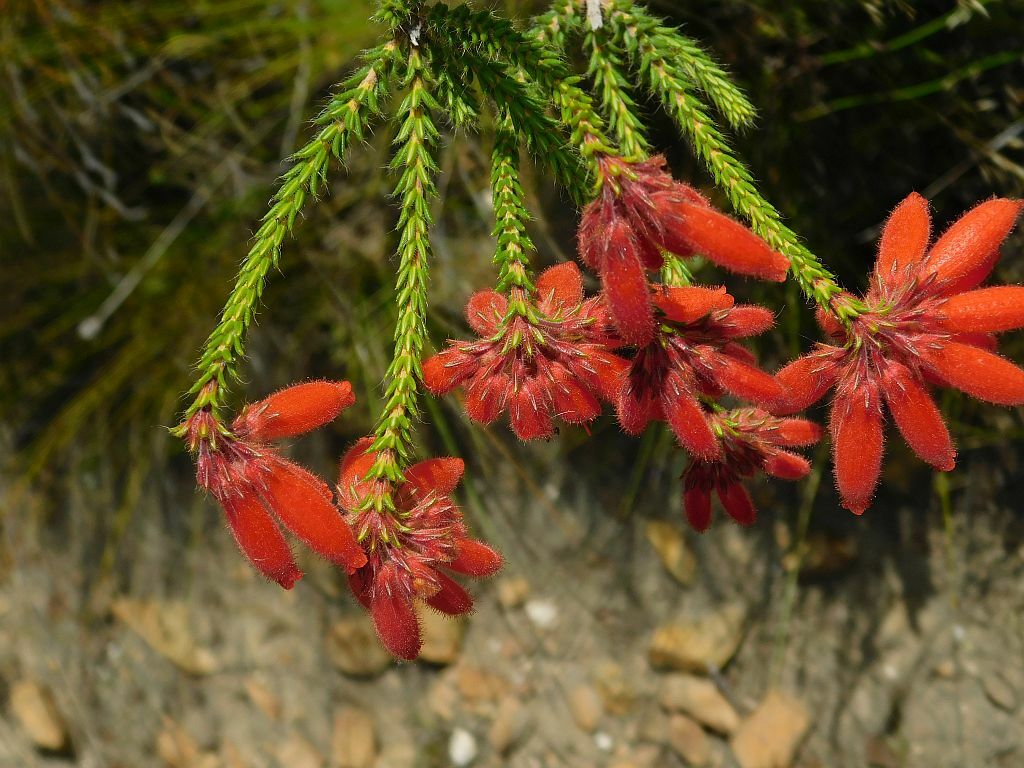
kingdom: Plantae
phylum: Tracheophyta
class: Magnoliopsida
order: Ericales
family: Ericaceae
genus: Erica
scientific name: Erica cerinthoides
